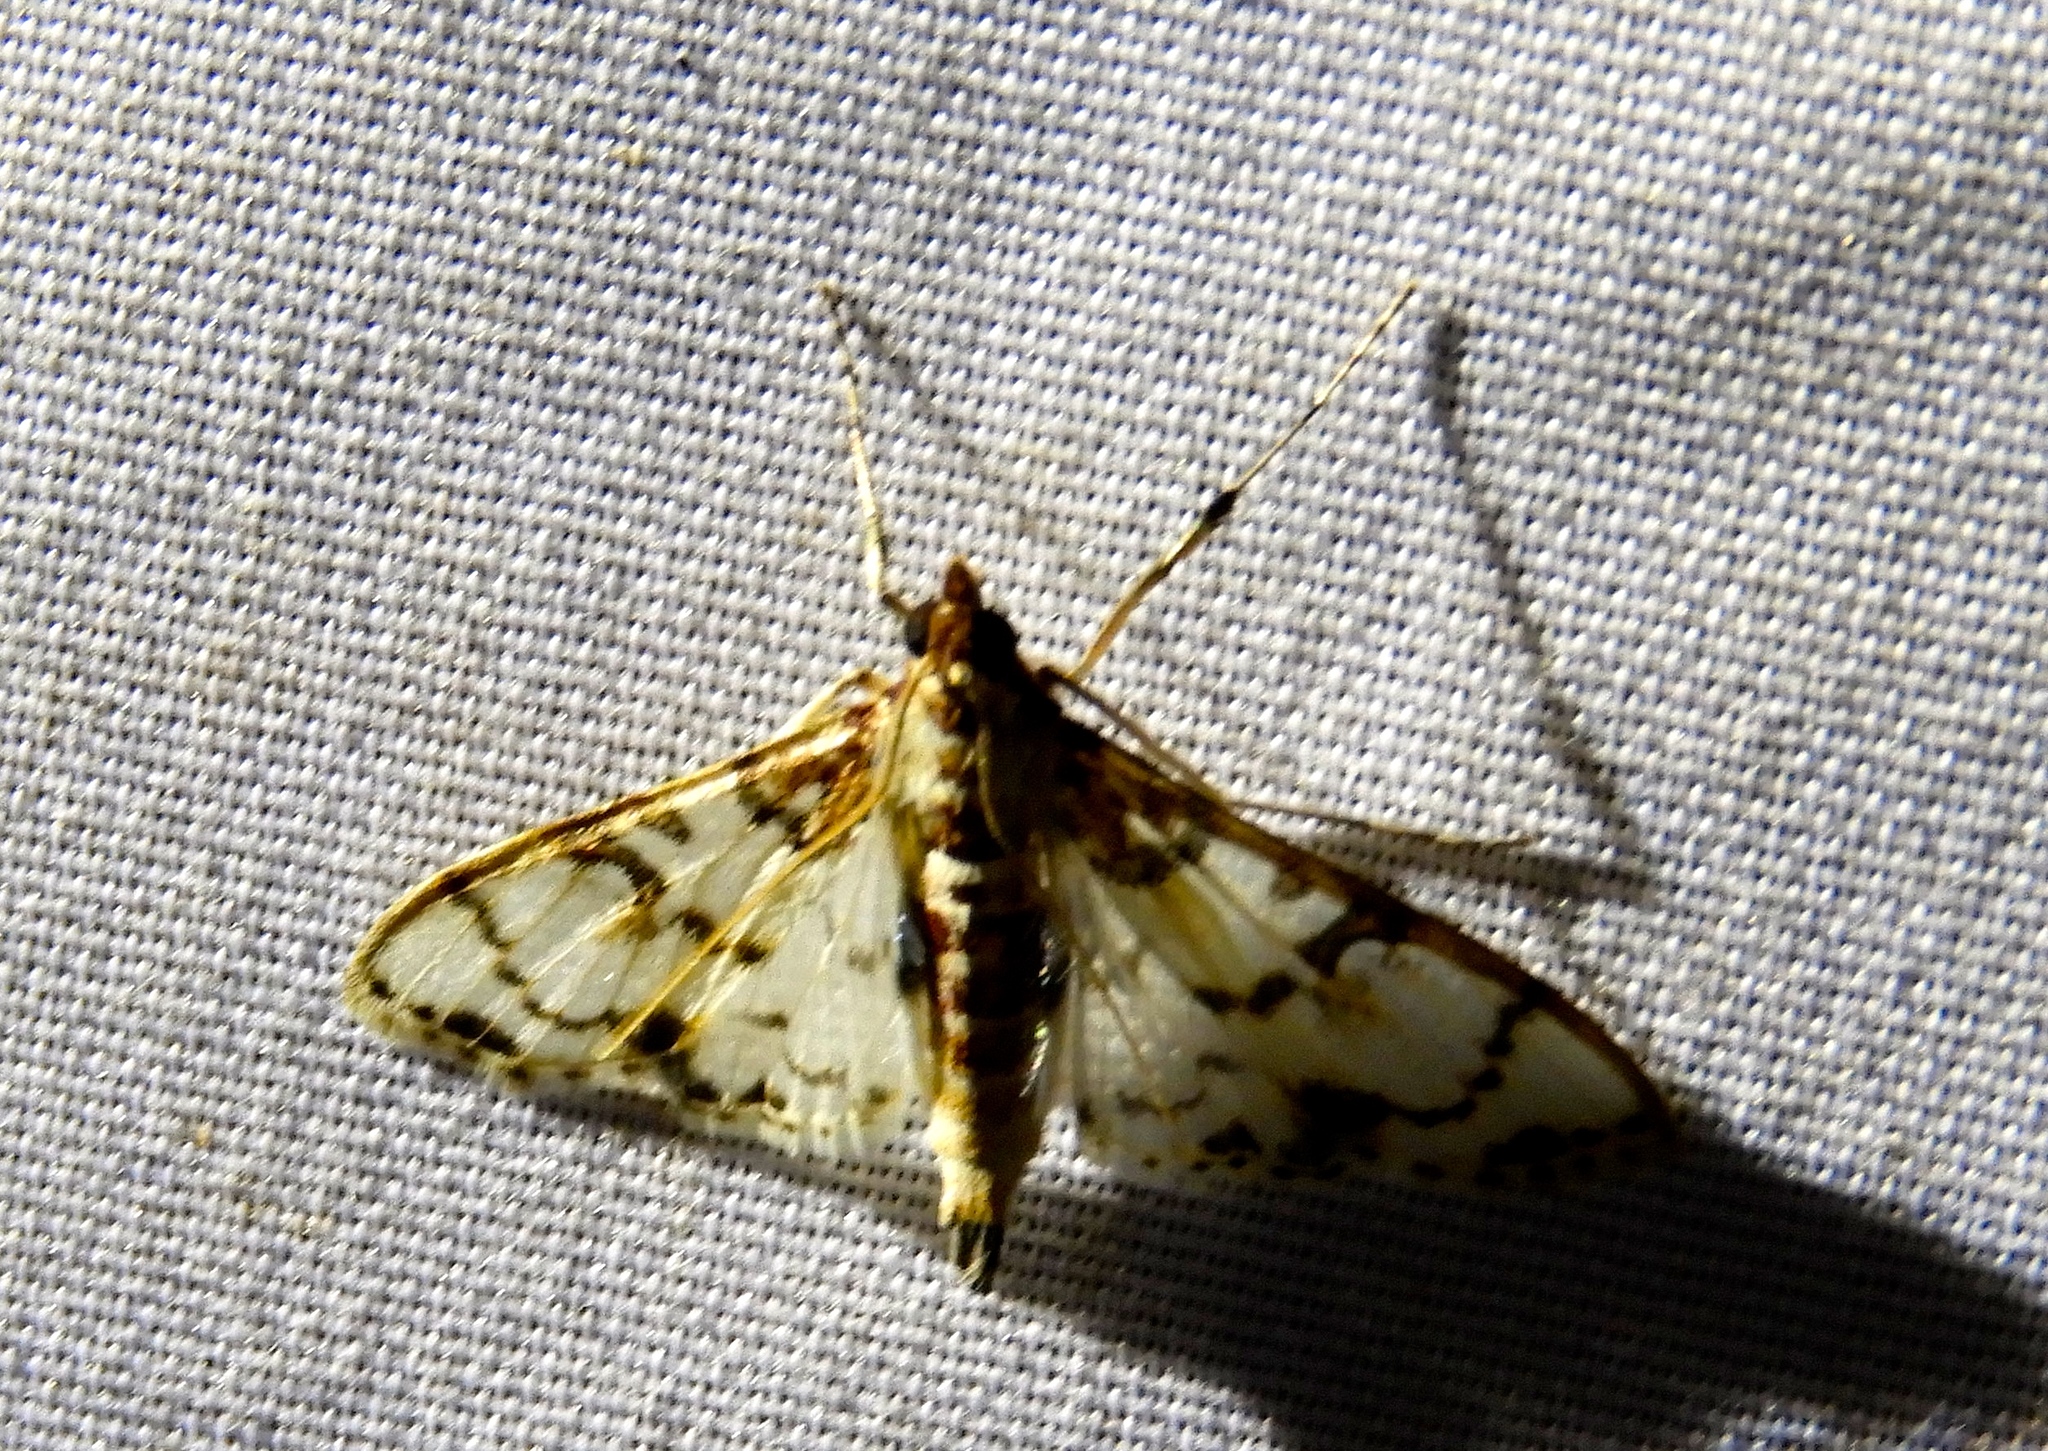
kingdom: Animalia
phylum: Arthropoda
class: Insecta
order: Lepidoptera
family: Crambidae
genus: Azochis
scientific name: Azochis rufidiscalis
